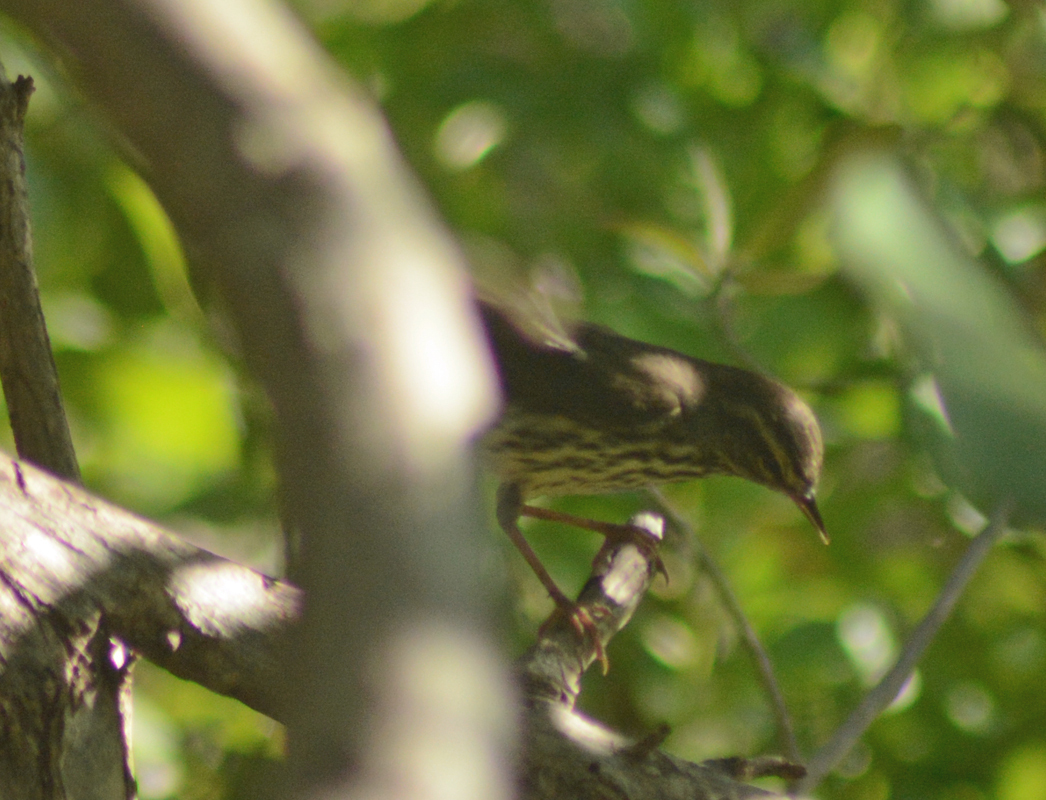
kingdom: Animalia
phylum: Chordata
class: Aves
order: Passeriformes
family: Parulidae
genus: Parkesia
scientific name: Parkesia noveboracensis
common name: Northern waterthrush
